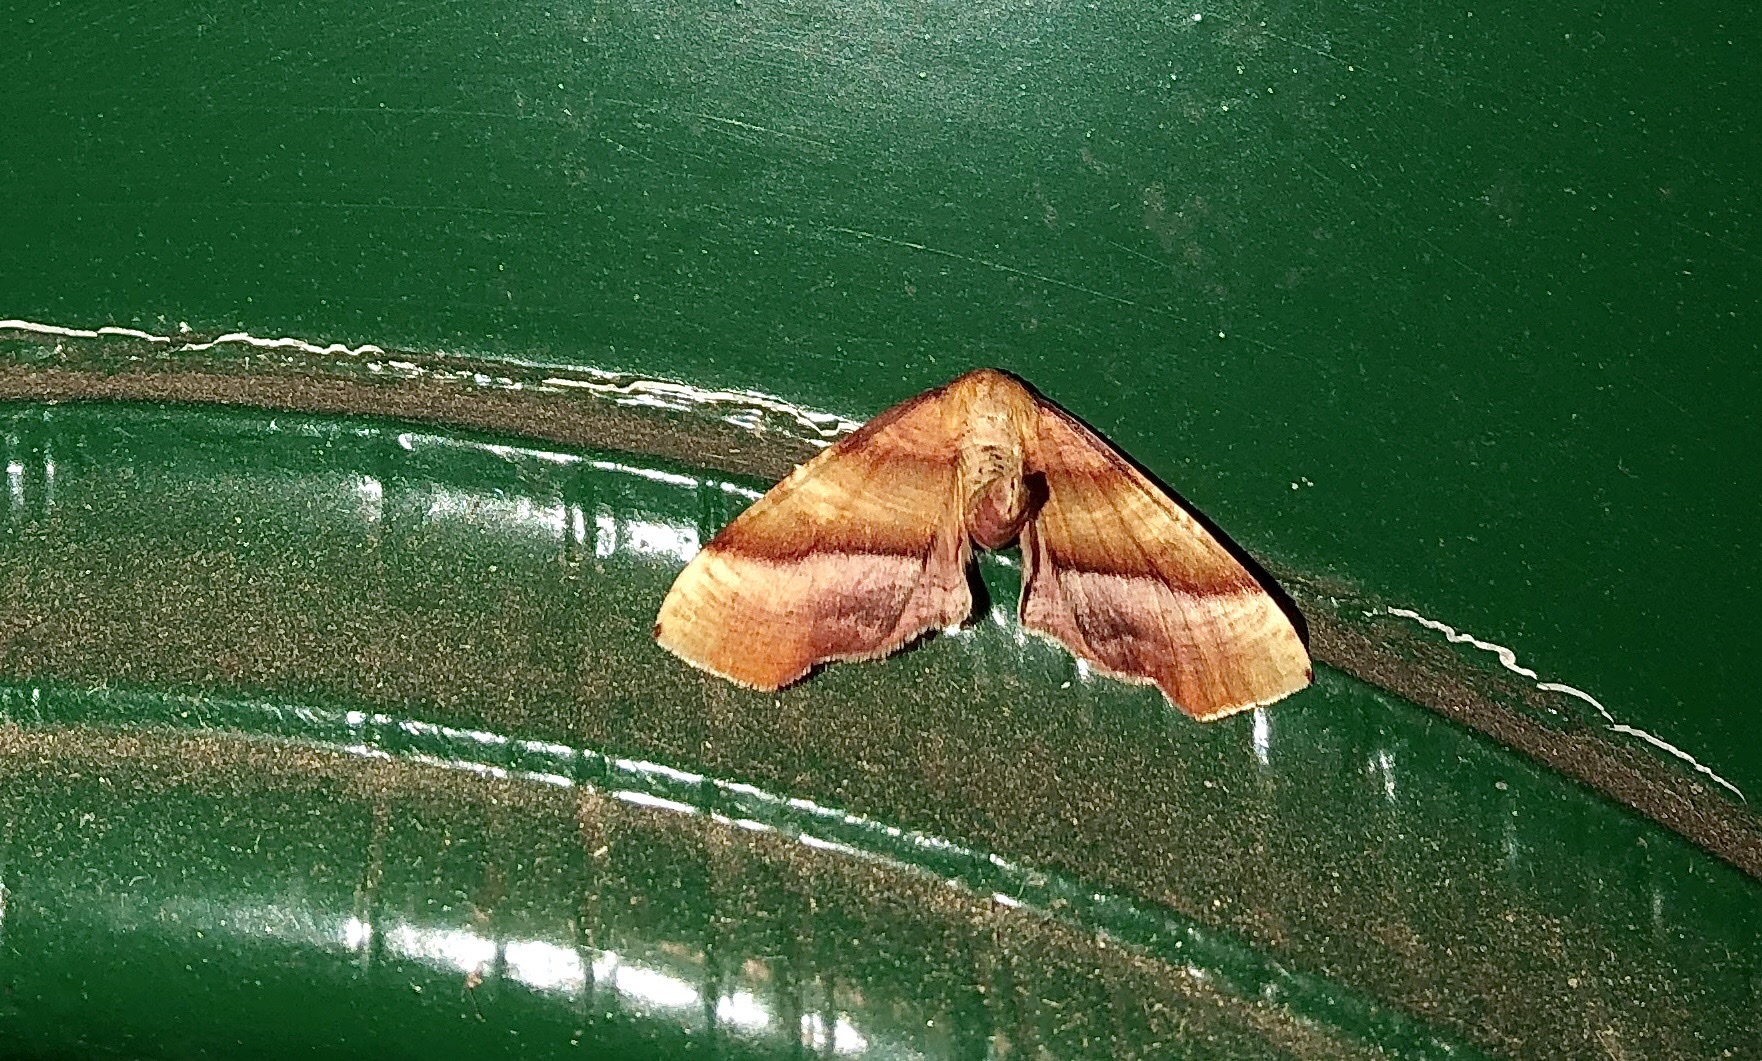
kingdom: Animalia
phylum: Arthropoda
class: Insecta
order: Lepidoptera
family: Geometridae
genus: Plagodis
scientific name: Plagodis phlogosaria
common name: Straight-lined plagodis
